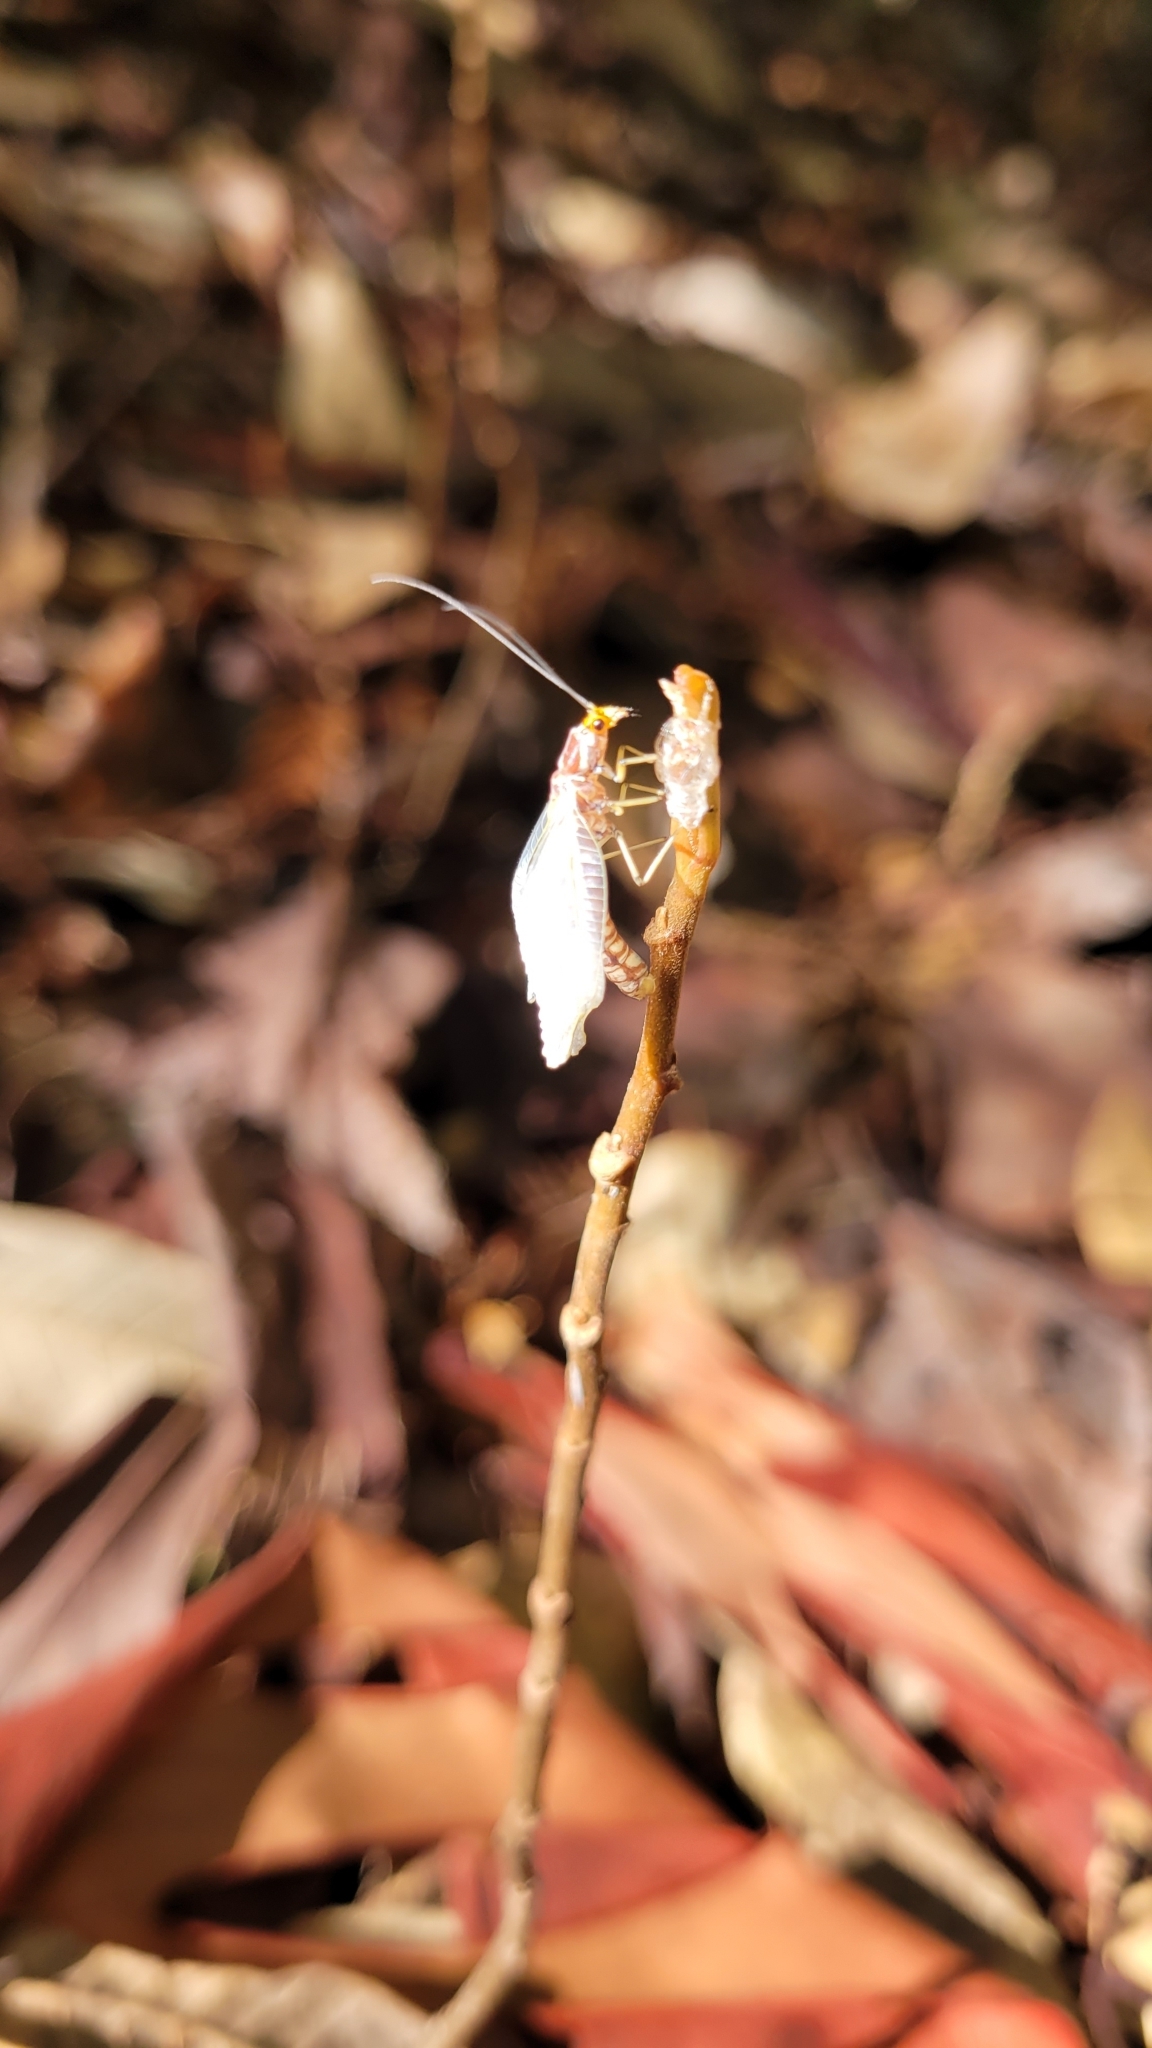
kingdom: Animalia
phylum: Arthropoda
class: Insecta
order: Neuroptera
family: Chrysopidae
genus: Nothochrysa
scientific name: Nothochrysa californica
